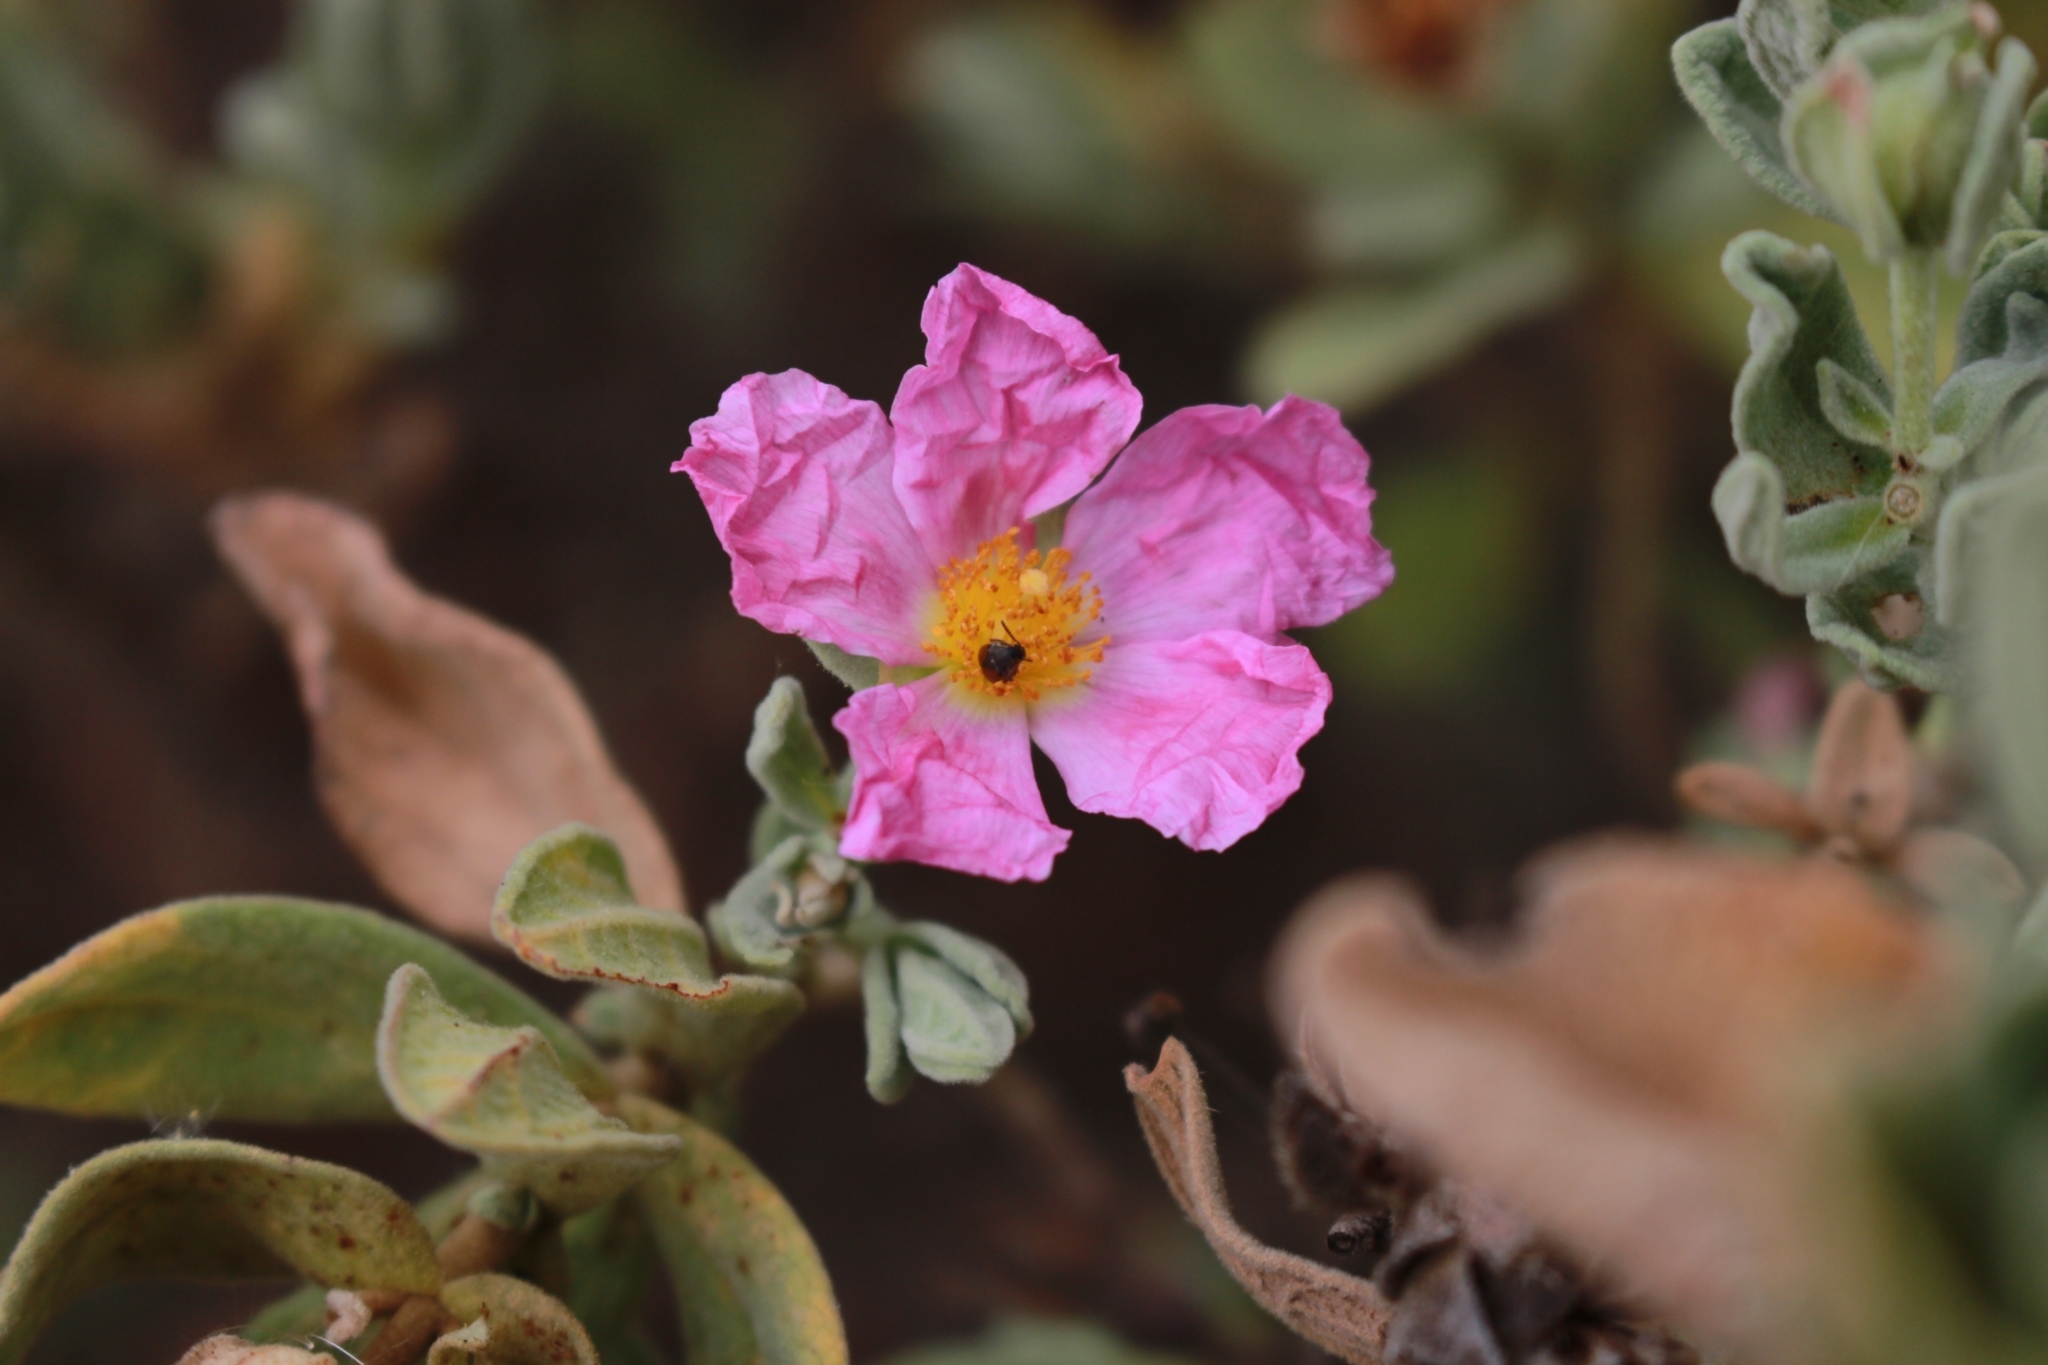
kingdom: Plantae
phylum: Tracheophyta
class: Magnoliopsida
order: Malvales
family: Cistaceae
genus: Cistus
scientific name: Cistus albidus
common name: White-leaf rock-rose
